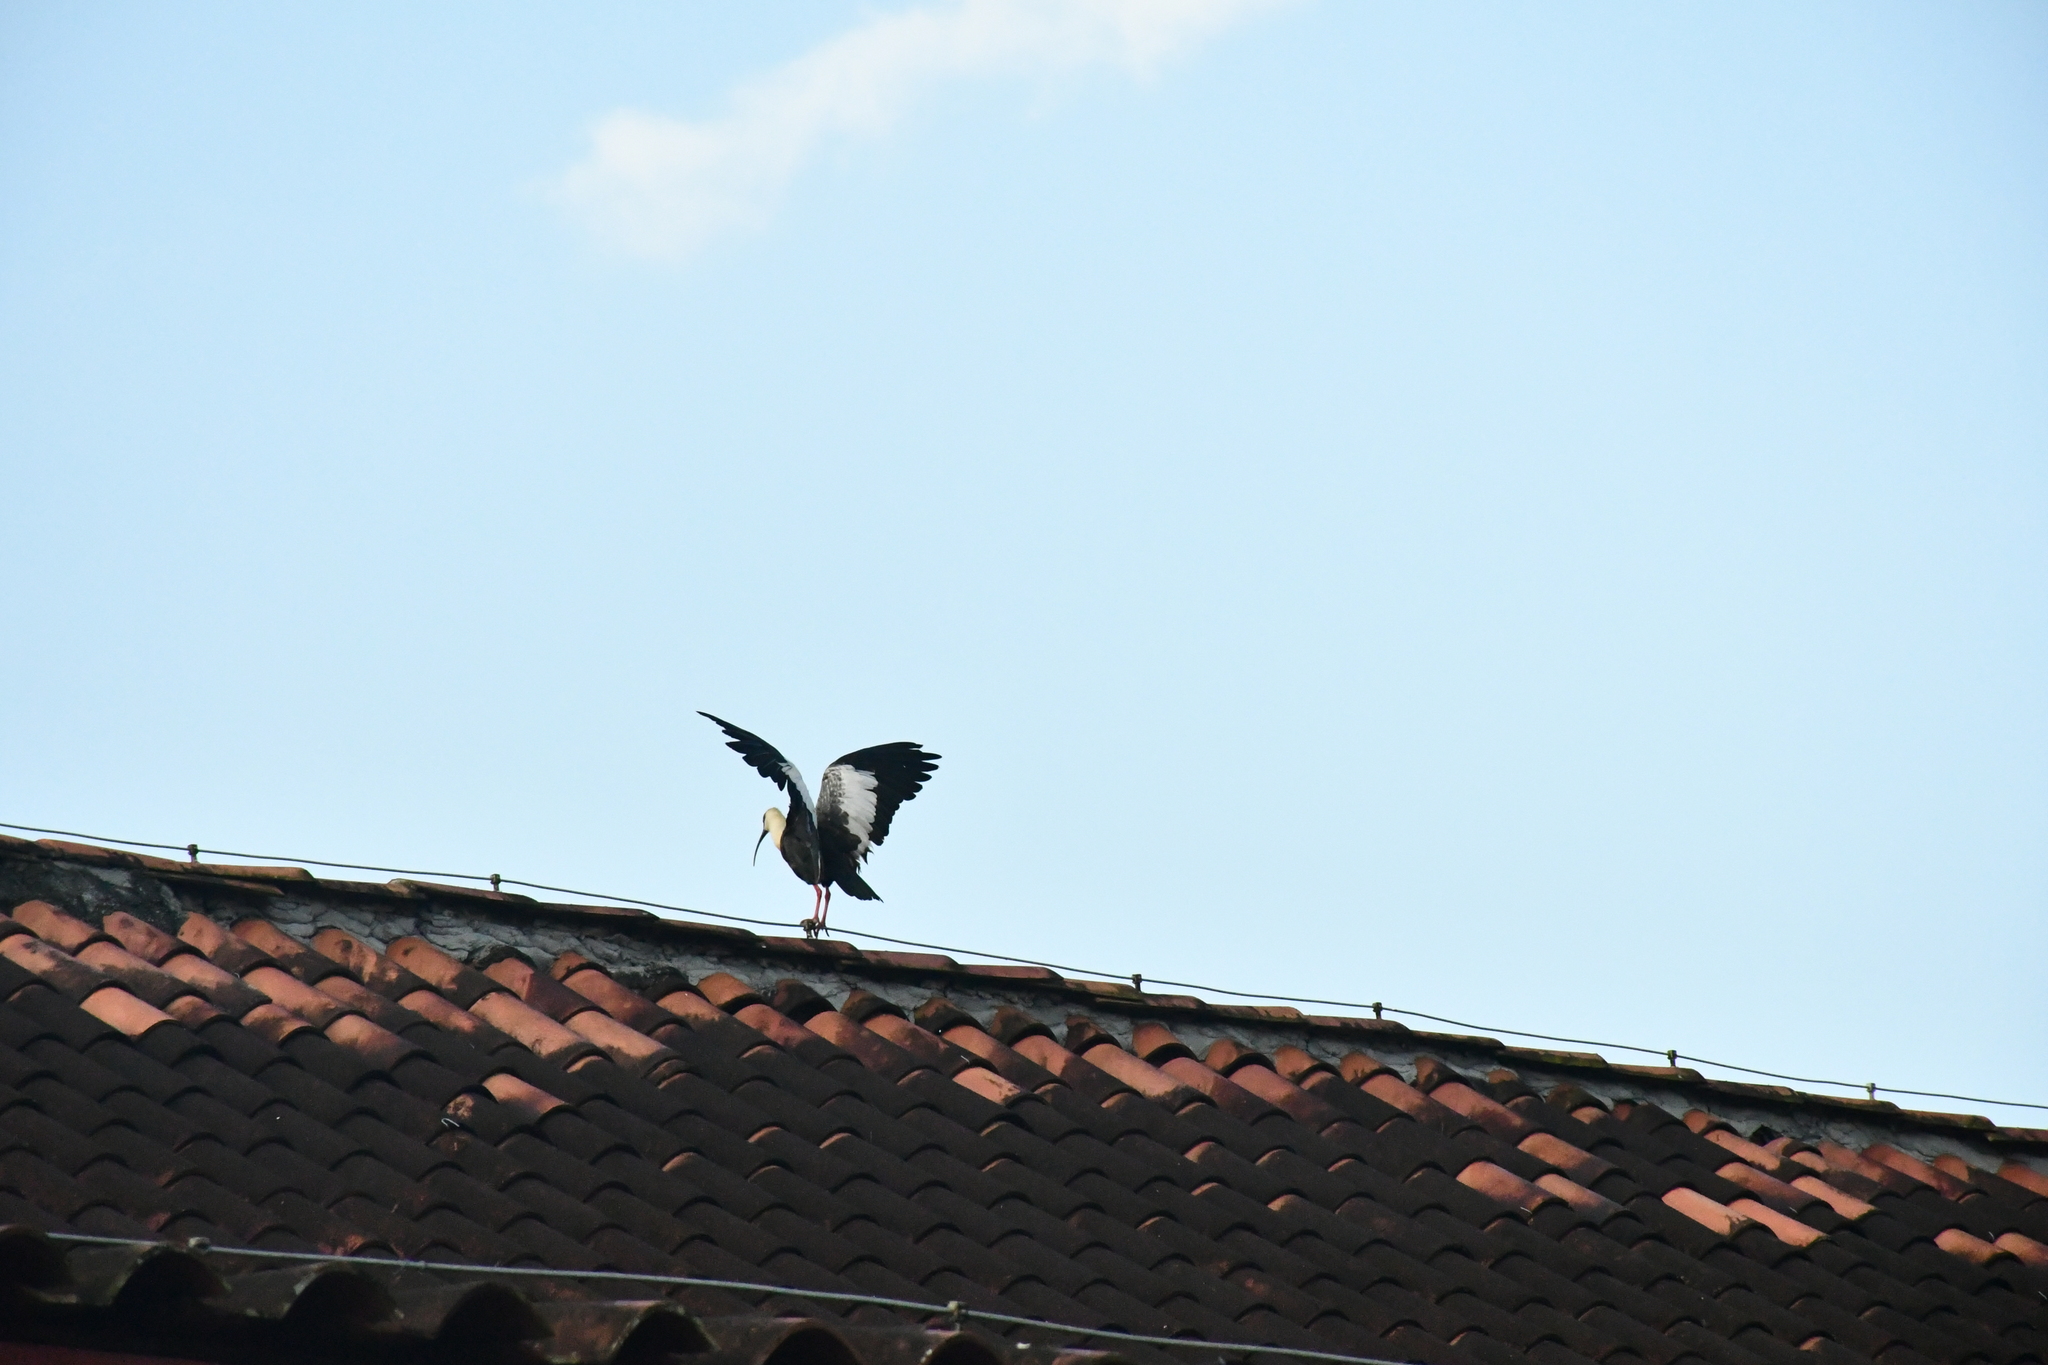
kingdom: Animalia
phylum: Chordata
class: Aves
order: Pelecaniformes
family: Threskiornithidae
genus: Theristicus
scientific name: Theristicus caudatus
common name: Buff-necked ibis
